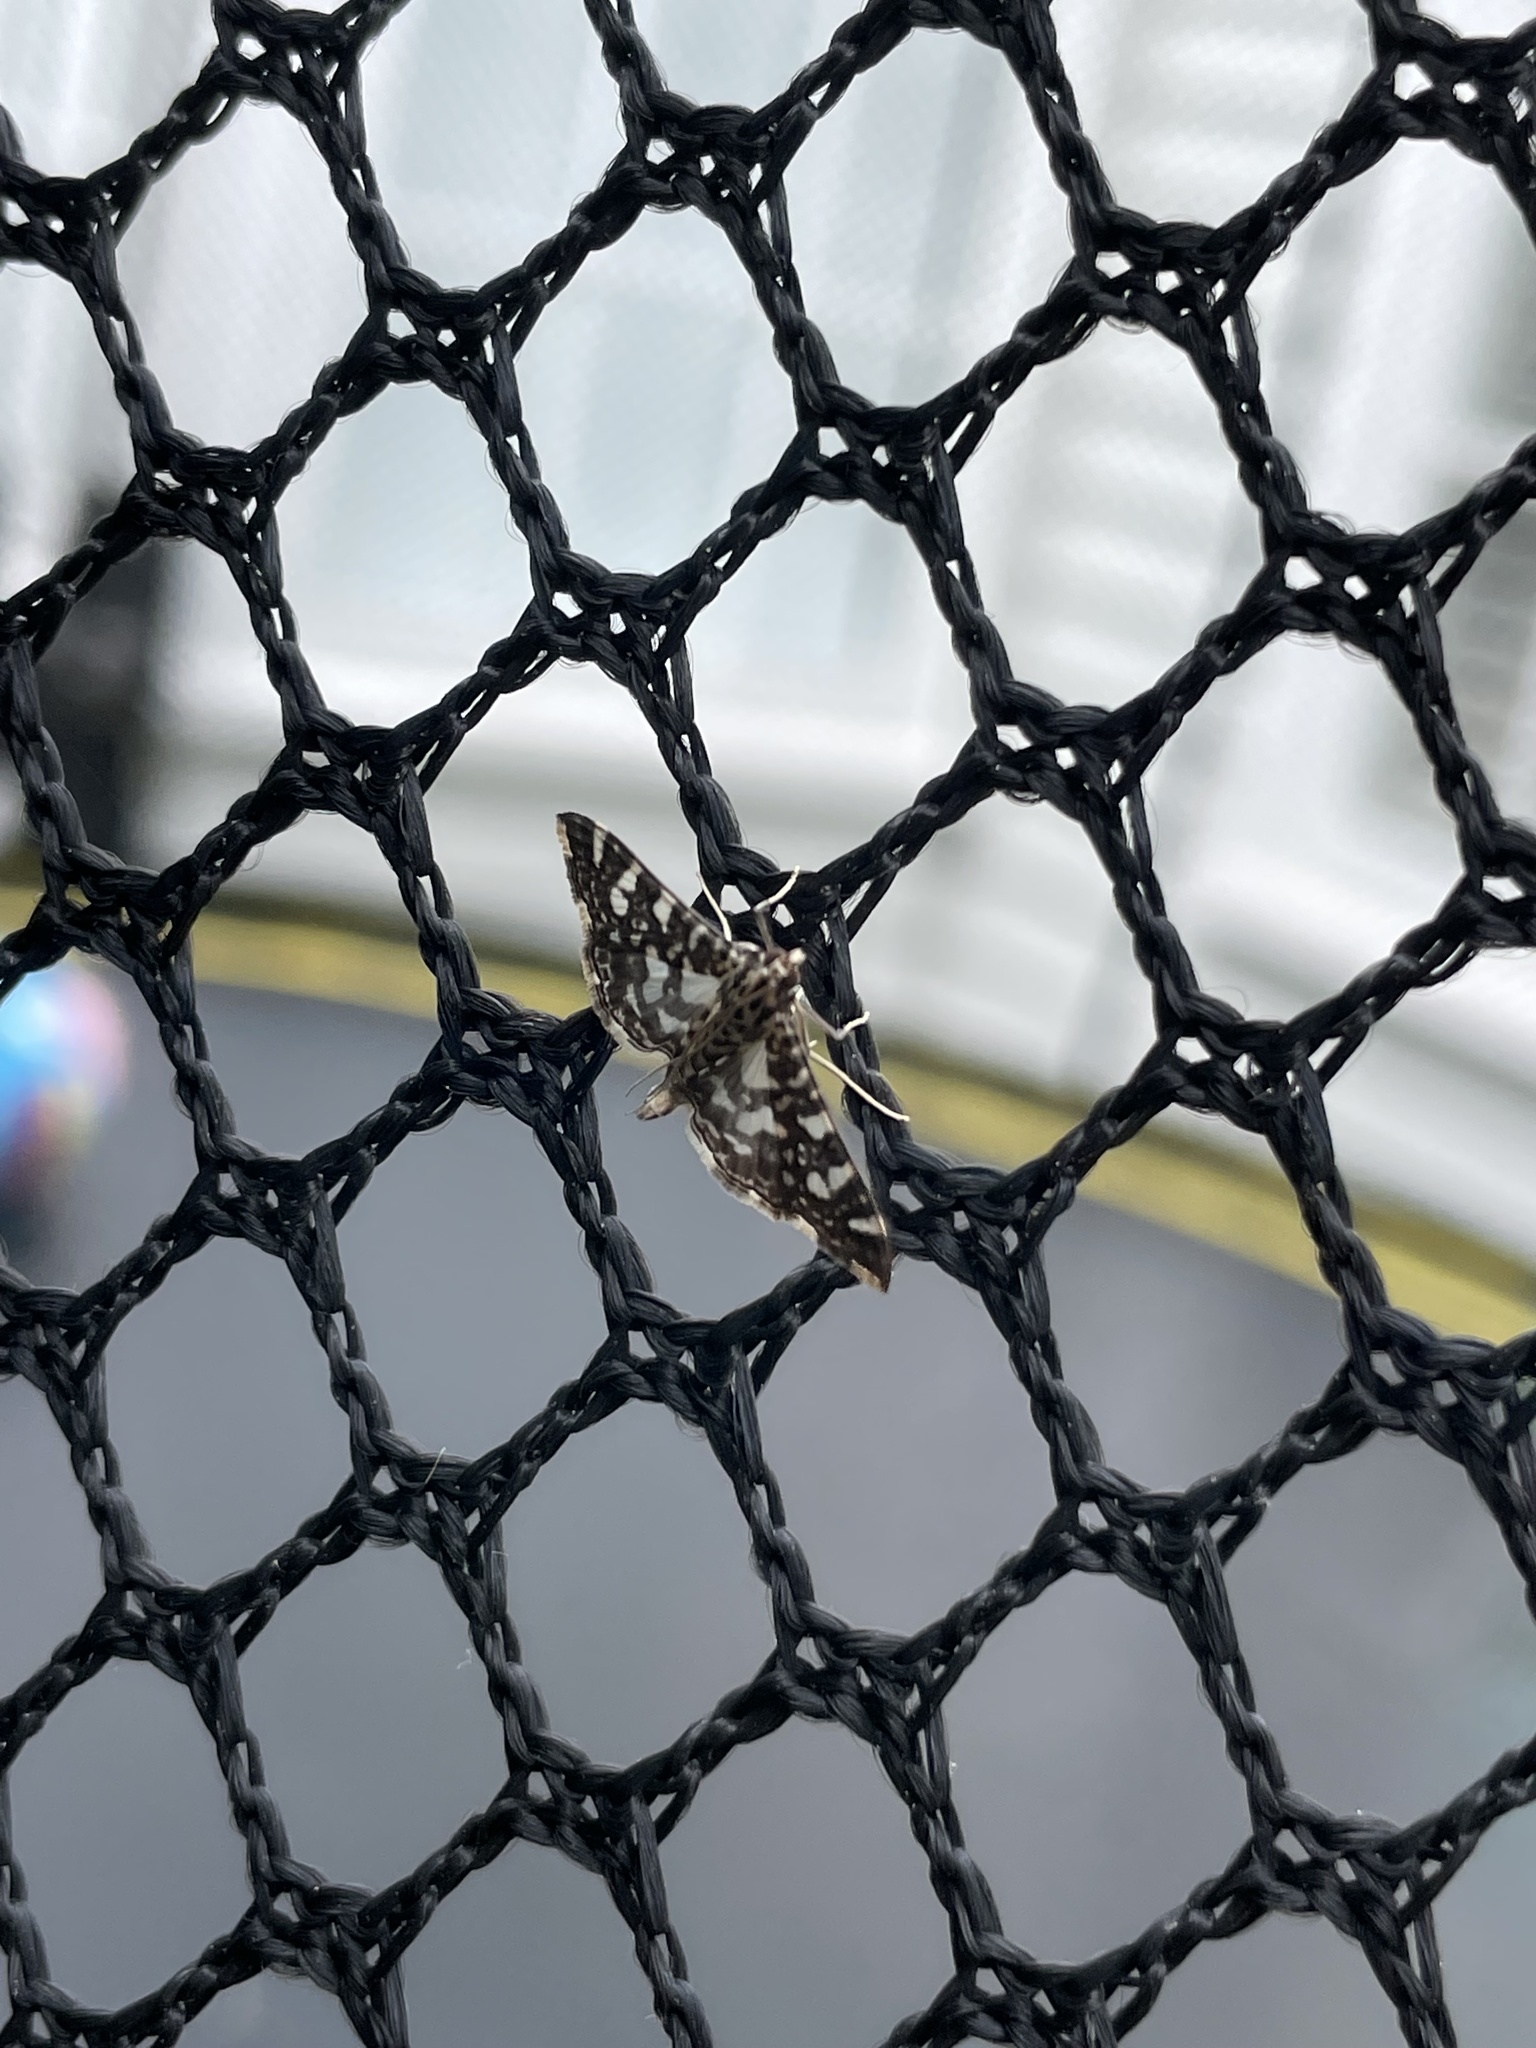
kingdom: Animalia
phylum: Arthropoda
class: Insecta
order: Lepidoptera
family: Crambidae
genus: Glyphodes
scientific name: Glyphodes onychinalis
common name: Swan plant moth
